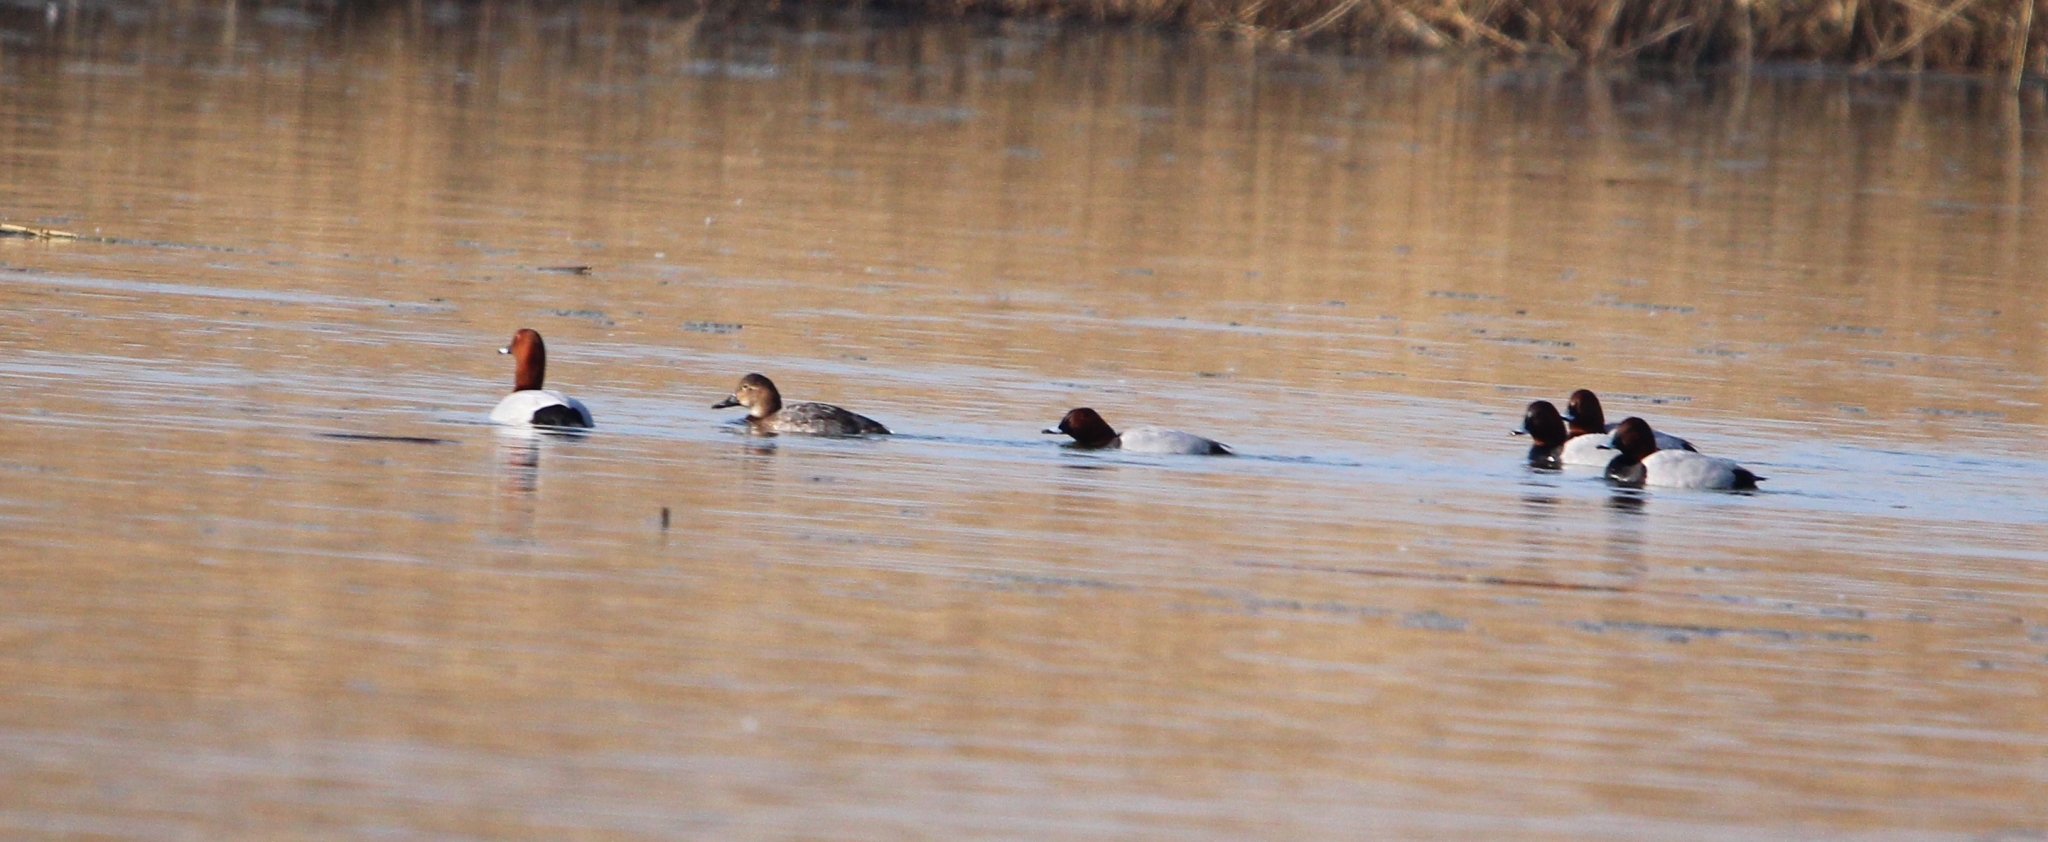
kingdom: Animalia
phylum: Chordata
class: Aves
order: Anseriformes
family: Anatidae
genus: Aythya
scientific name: Aythya ferina
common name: Common pochard
